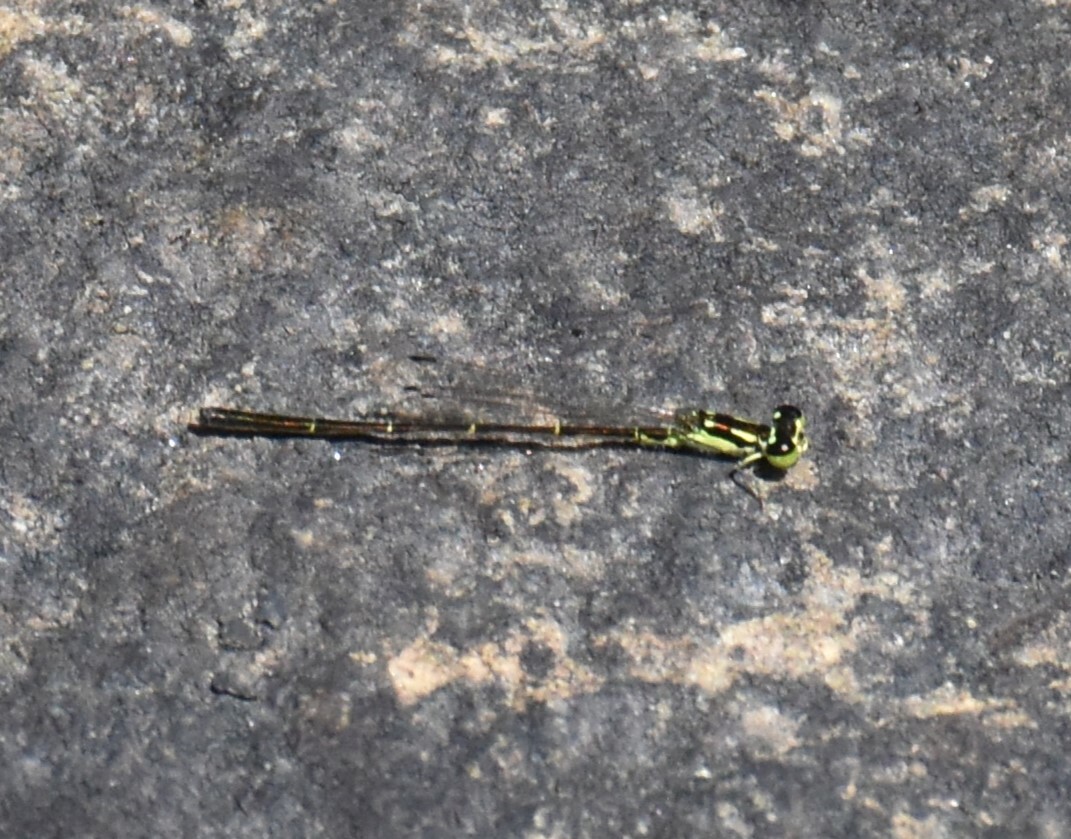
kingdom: Animalia
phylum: Arthropoda
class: Insecta
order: Odonata
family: Coenagrionidae
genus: Ischnura
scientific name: Ischnura posita
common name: Fragile forktail
